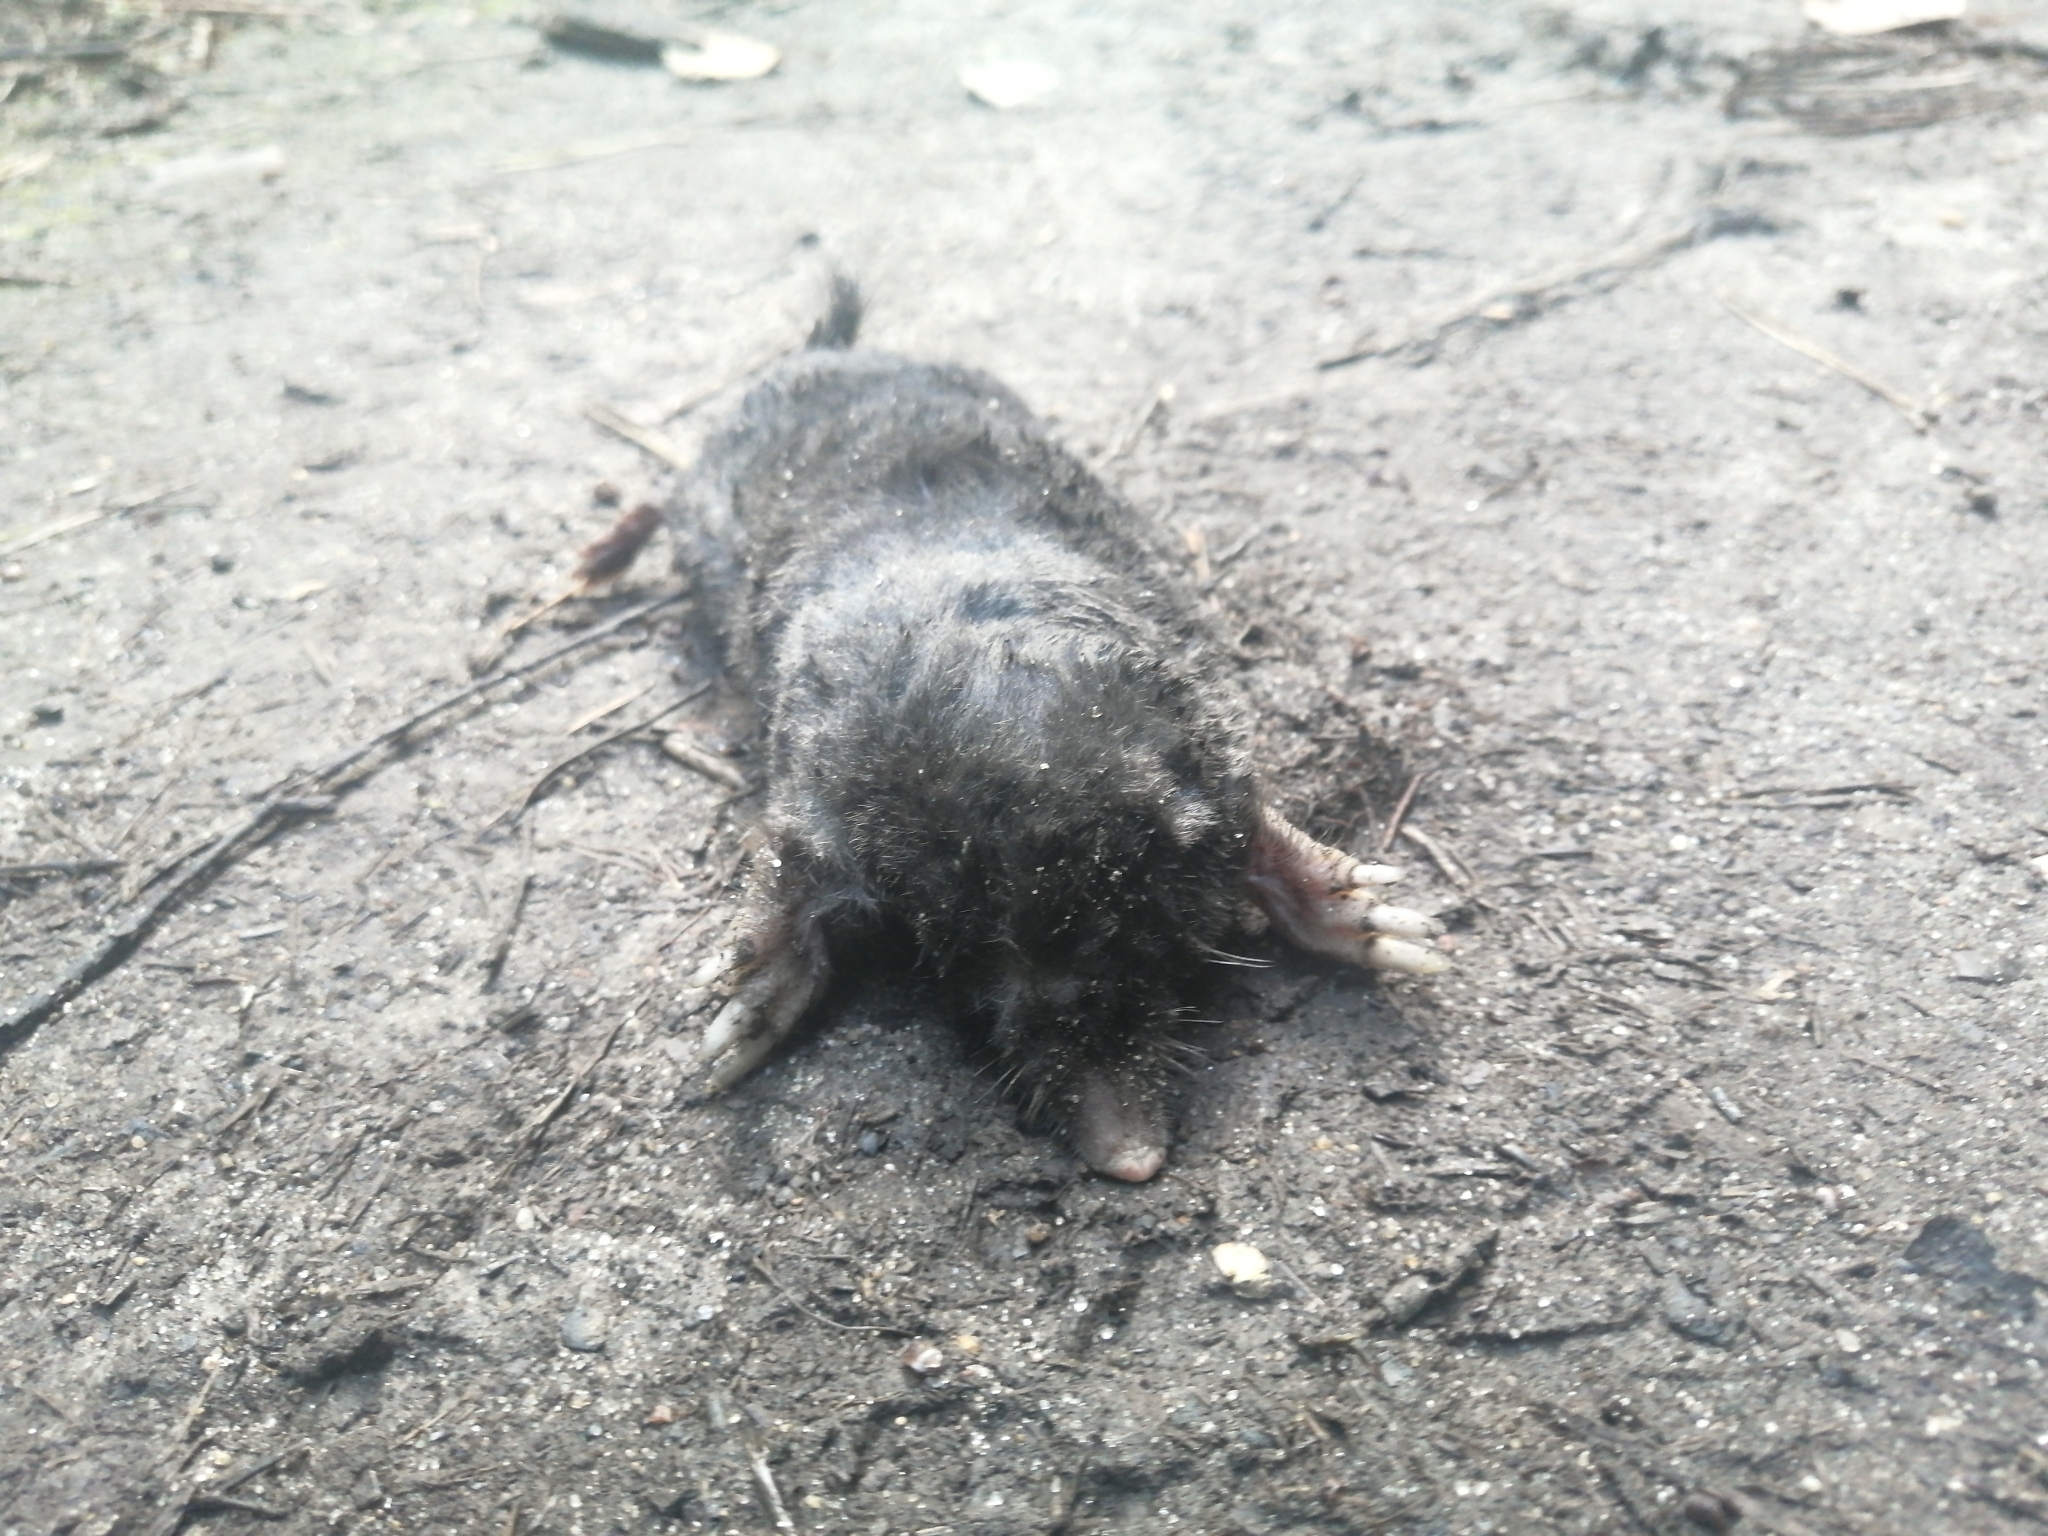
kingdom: Animalia
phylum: Chordata
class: Mammalia
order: Soricomorpha
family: Talpidae
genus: Talpa
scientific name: Talpa europaea
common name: European mole
